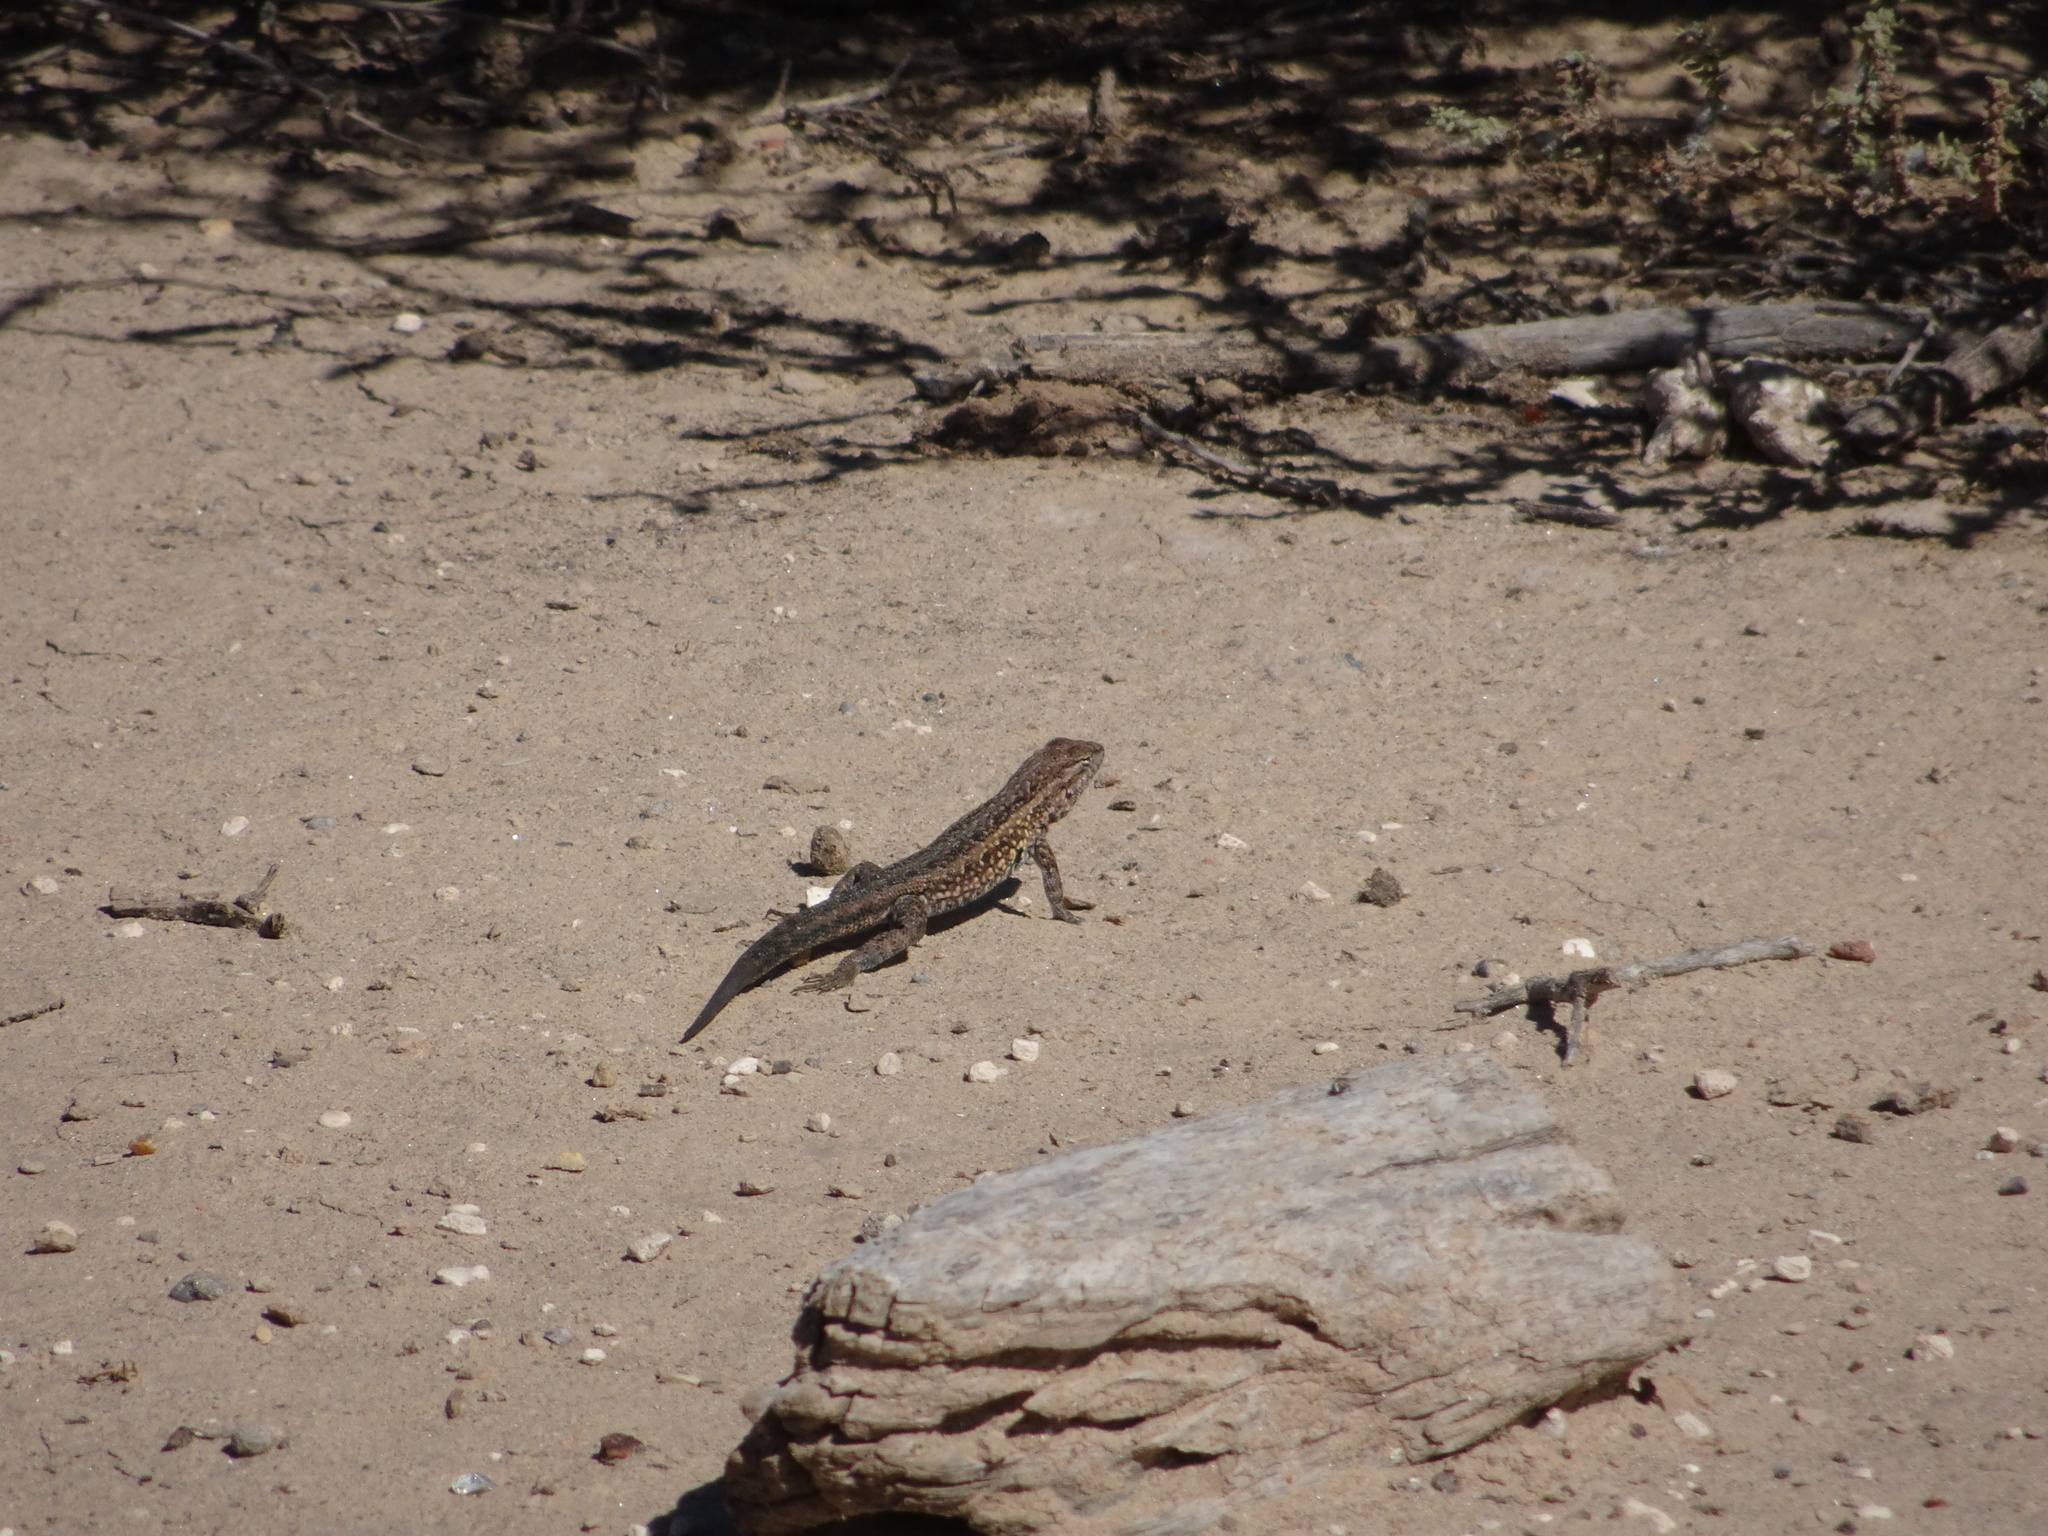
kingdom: Animalia
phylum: Chordata
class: Squamata
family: Phrynosomatidae
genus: Uta
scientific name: Uta stansburiana
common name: Side-blotched lizard
